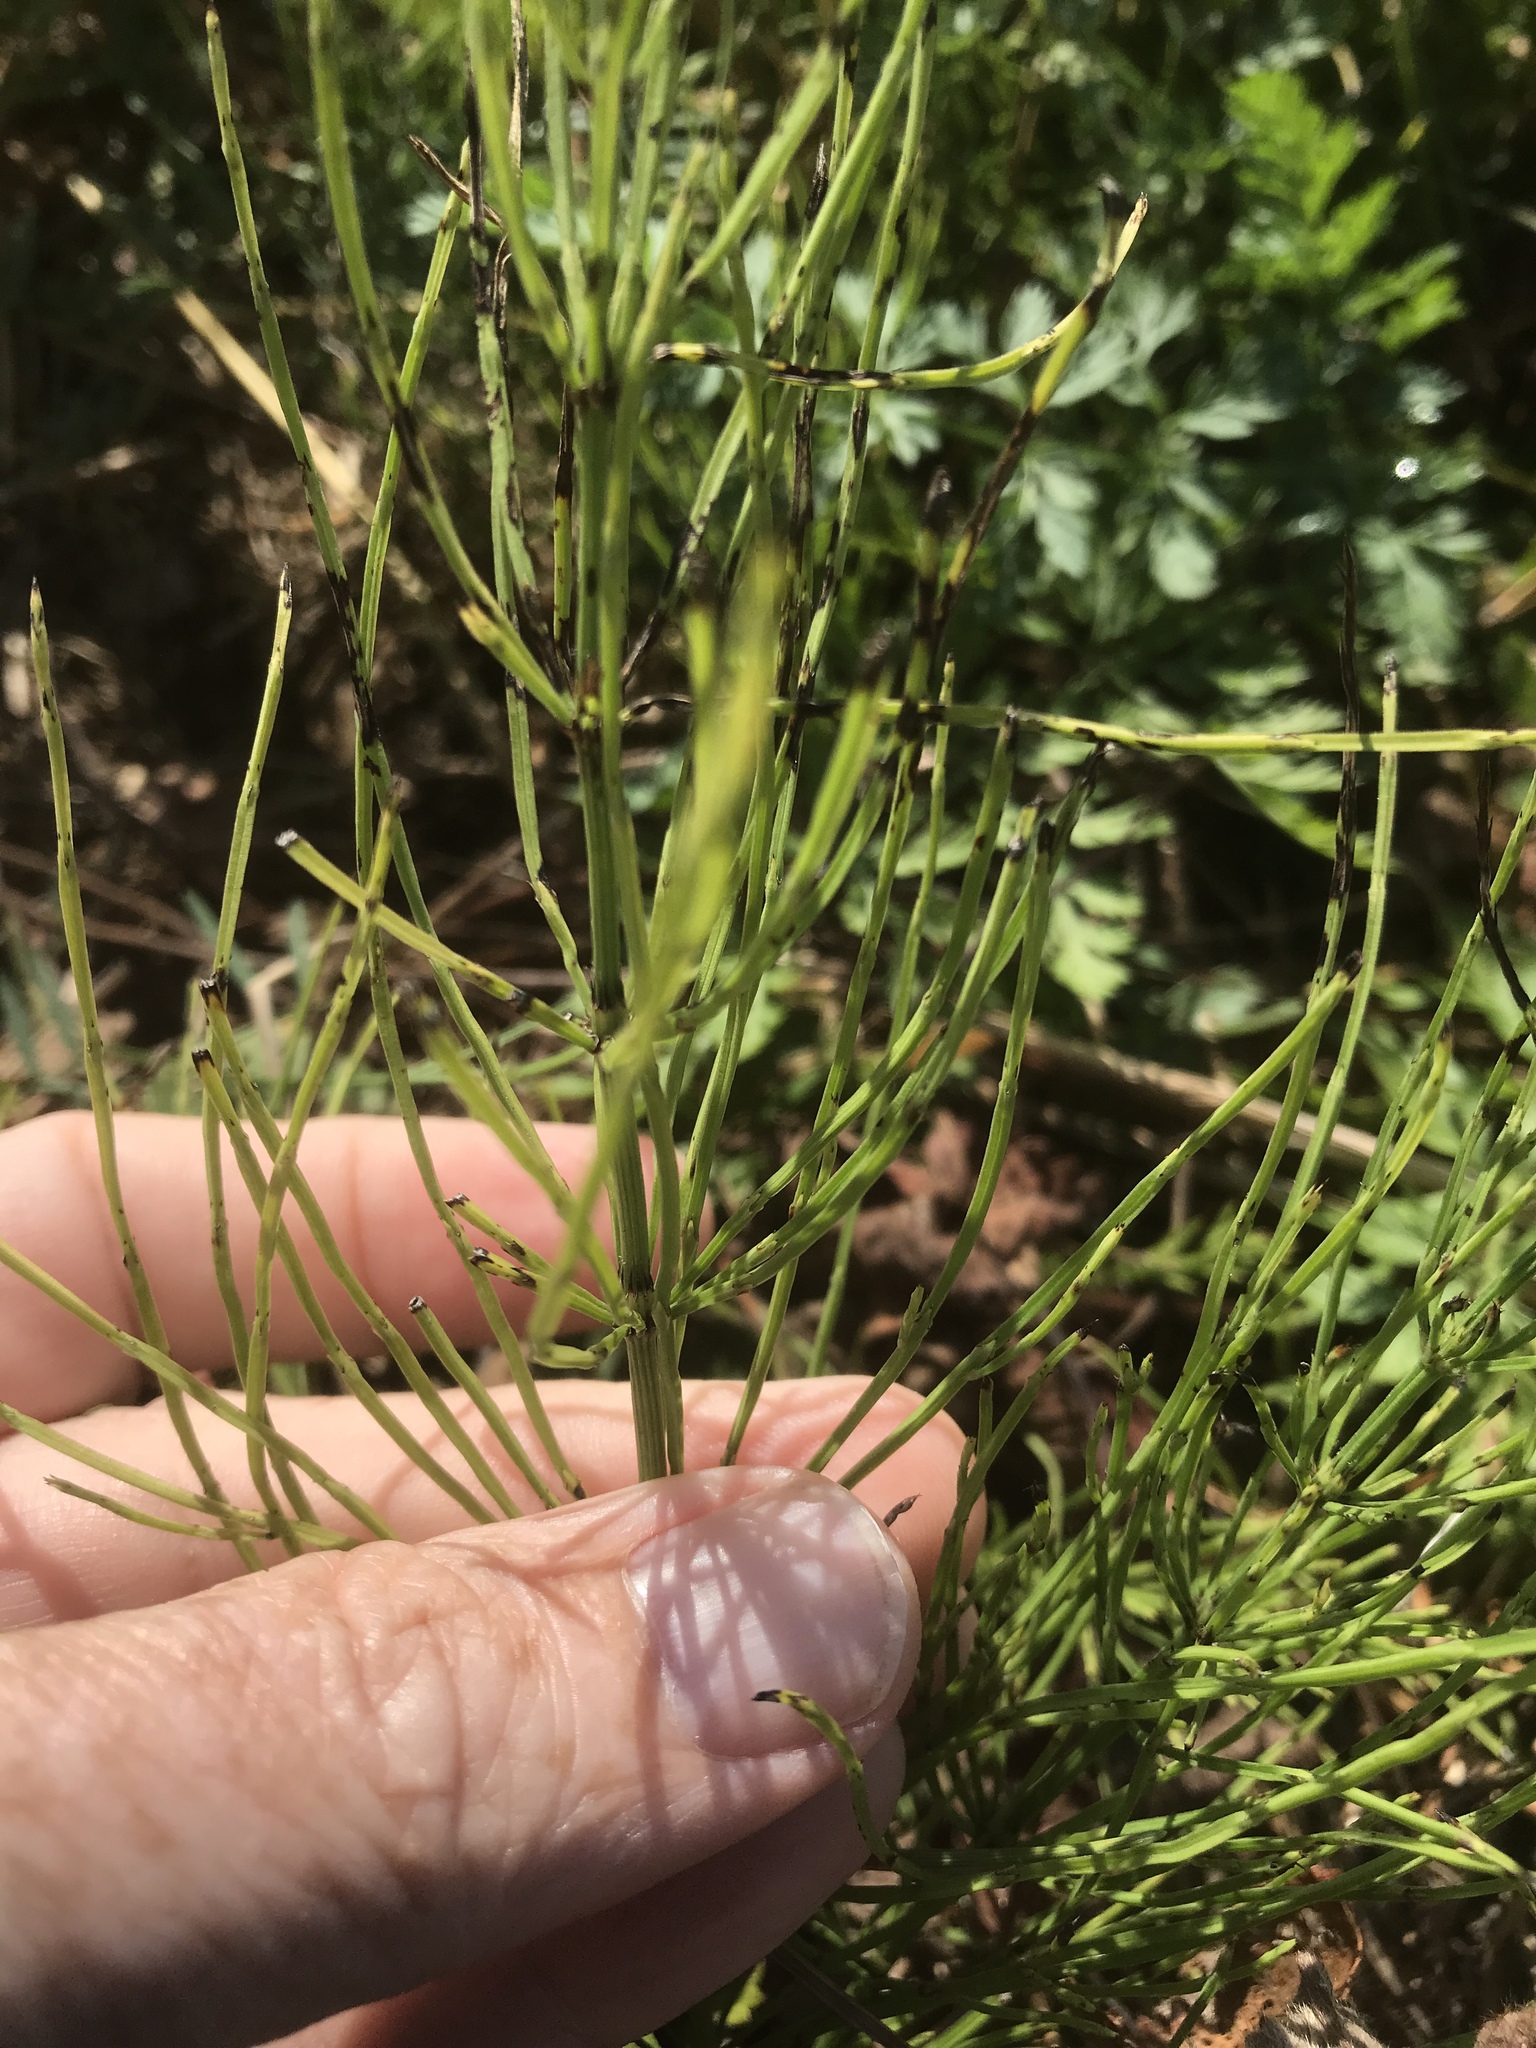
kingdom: Plantae
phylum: Tracheophyta
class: Polypodiopsida
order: Equisetales
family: Equisetaceae
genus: Equisetum
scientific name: Equisetum arvense
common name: Field horsetail
